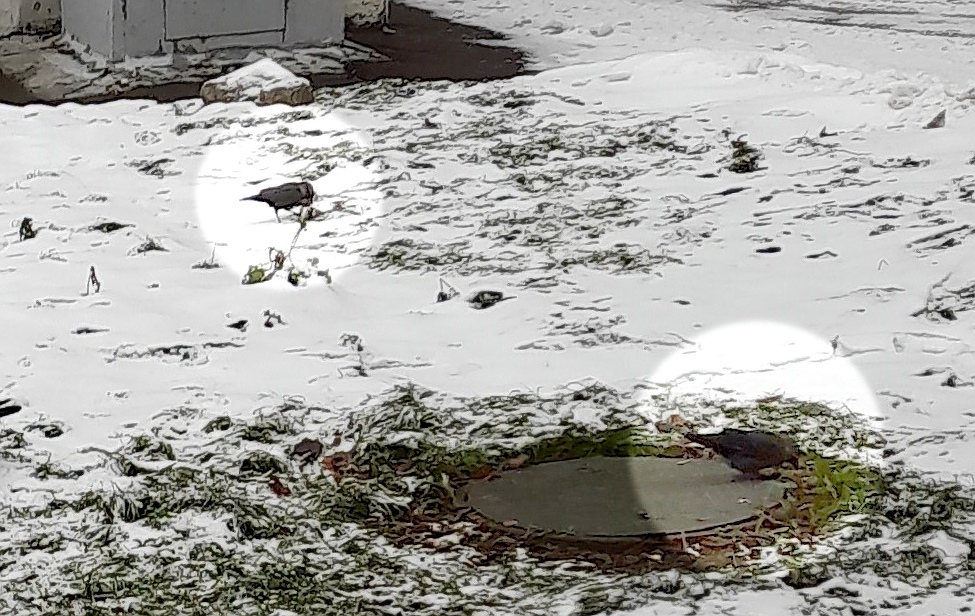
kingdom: Animalia
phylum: Chordata
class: Aves
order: Passeriformes
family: Corvidae
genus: Coloeus
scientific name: Coloeus monedula
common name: Western jackdaw
